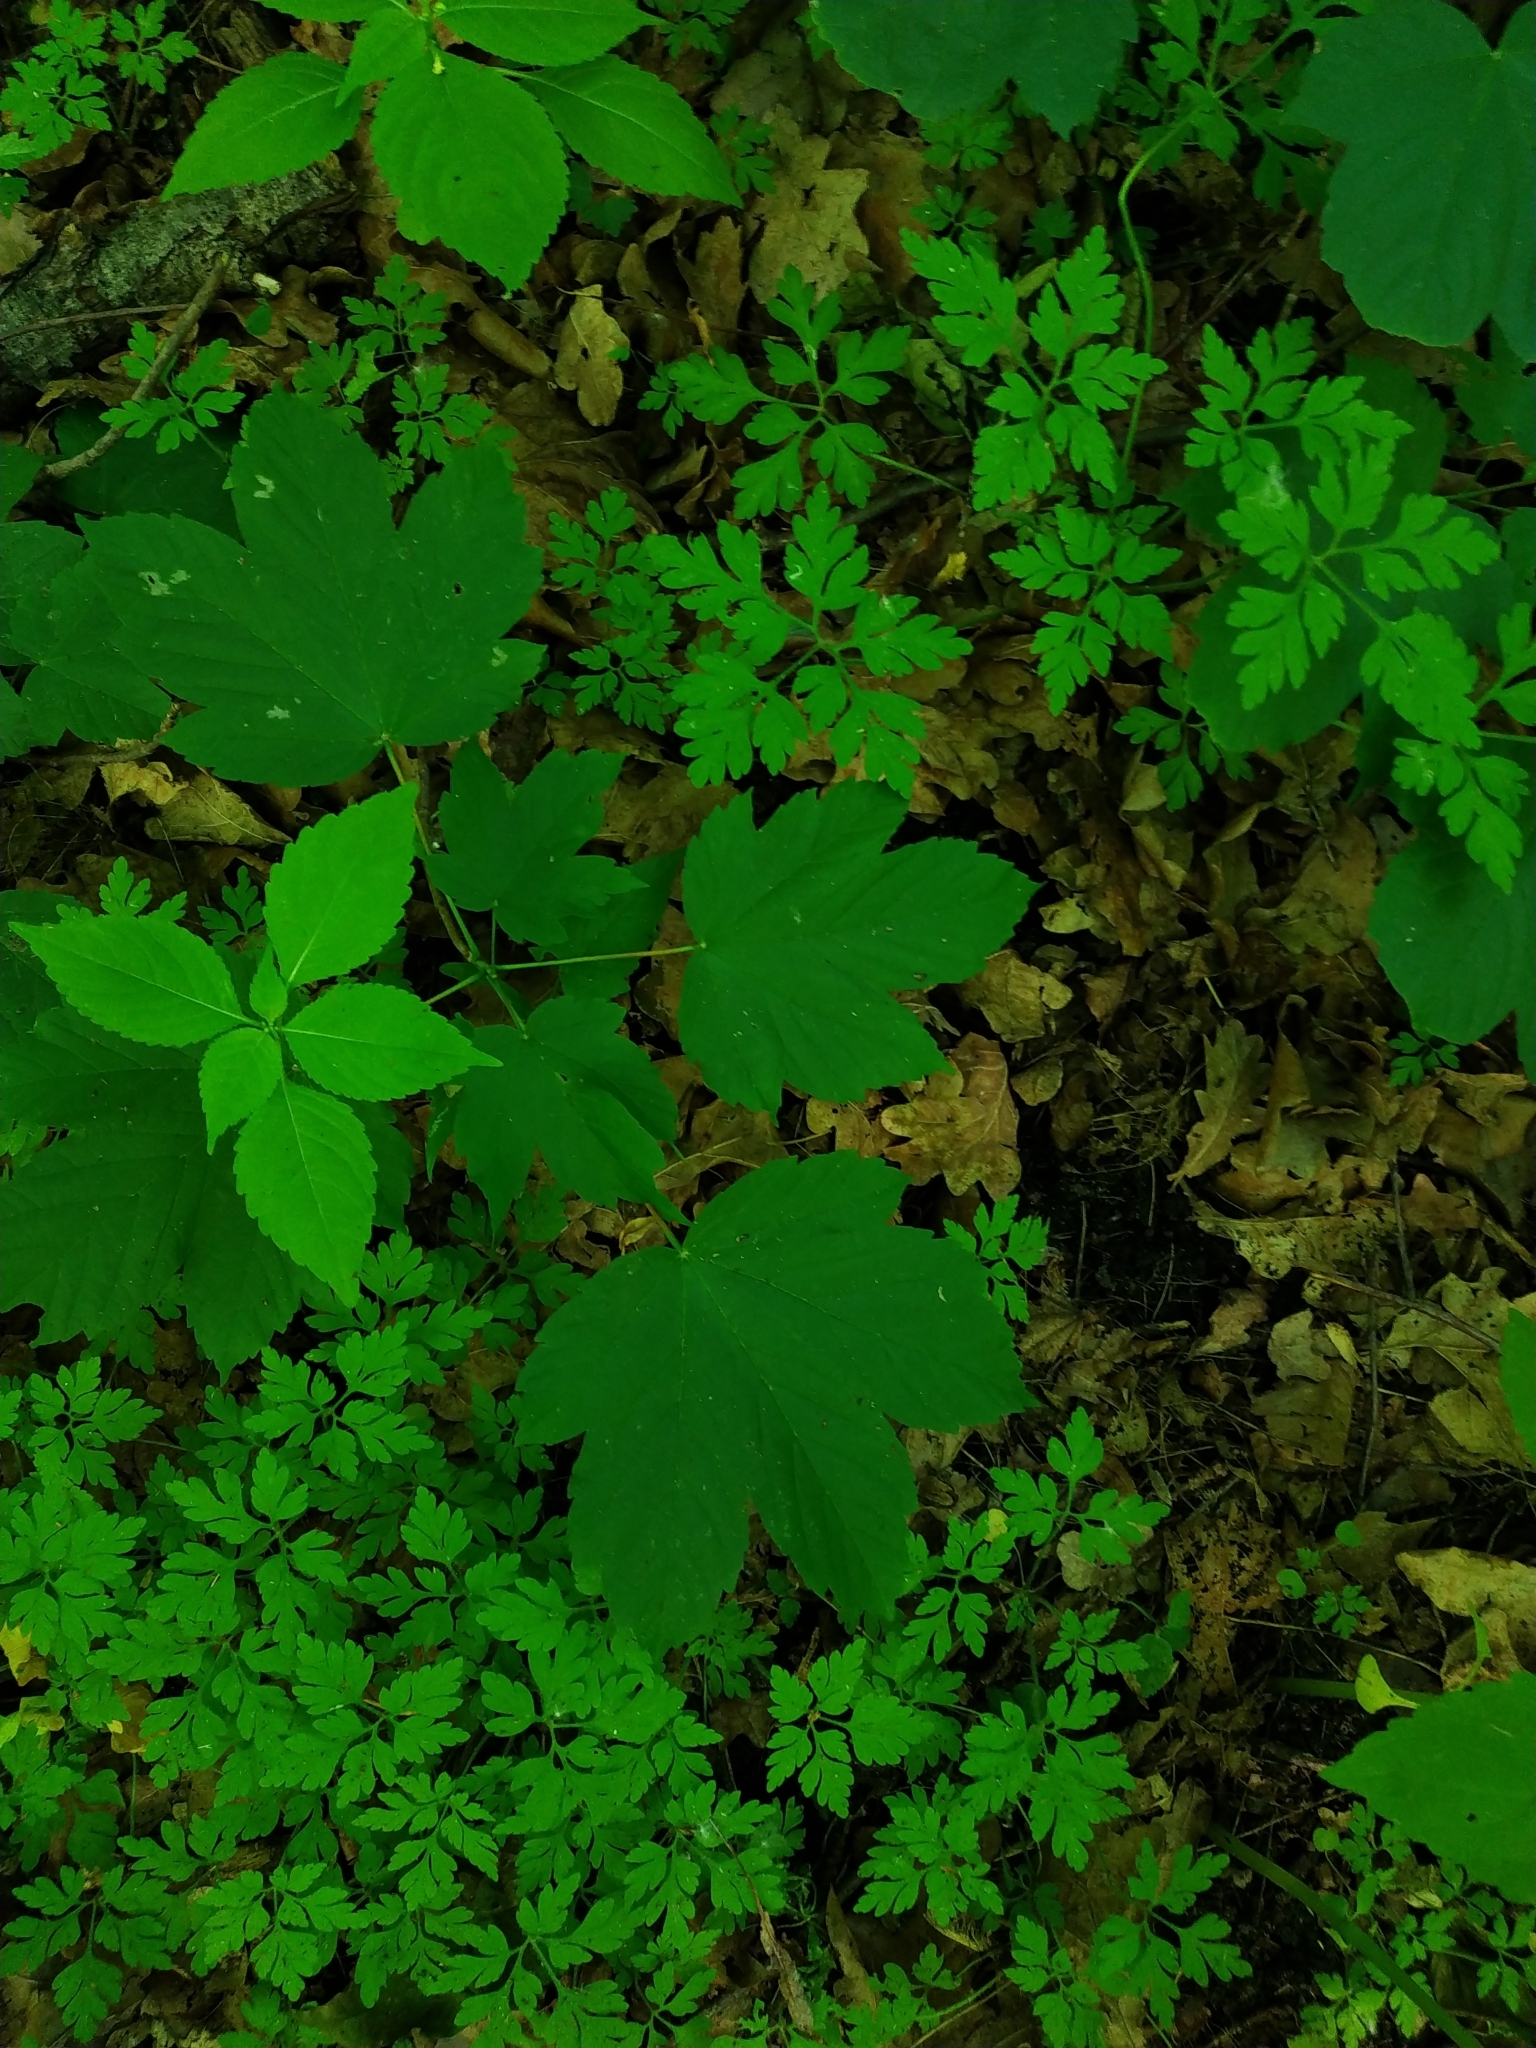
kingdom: Plantae
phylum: Tracheophyta
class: Magnoliopsida
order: Sapindales
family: Sapindaceae
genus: Acer
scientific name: Acer pseudoplatanus
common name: Sycamore
